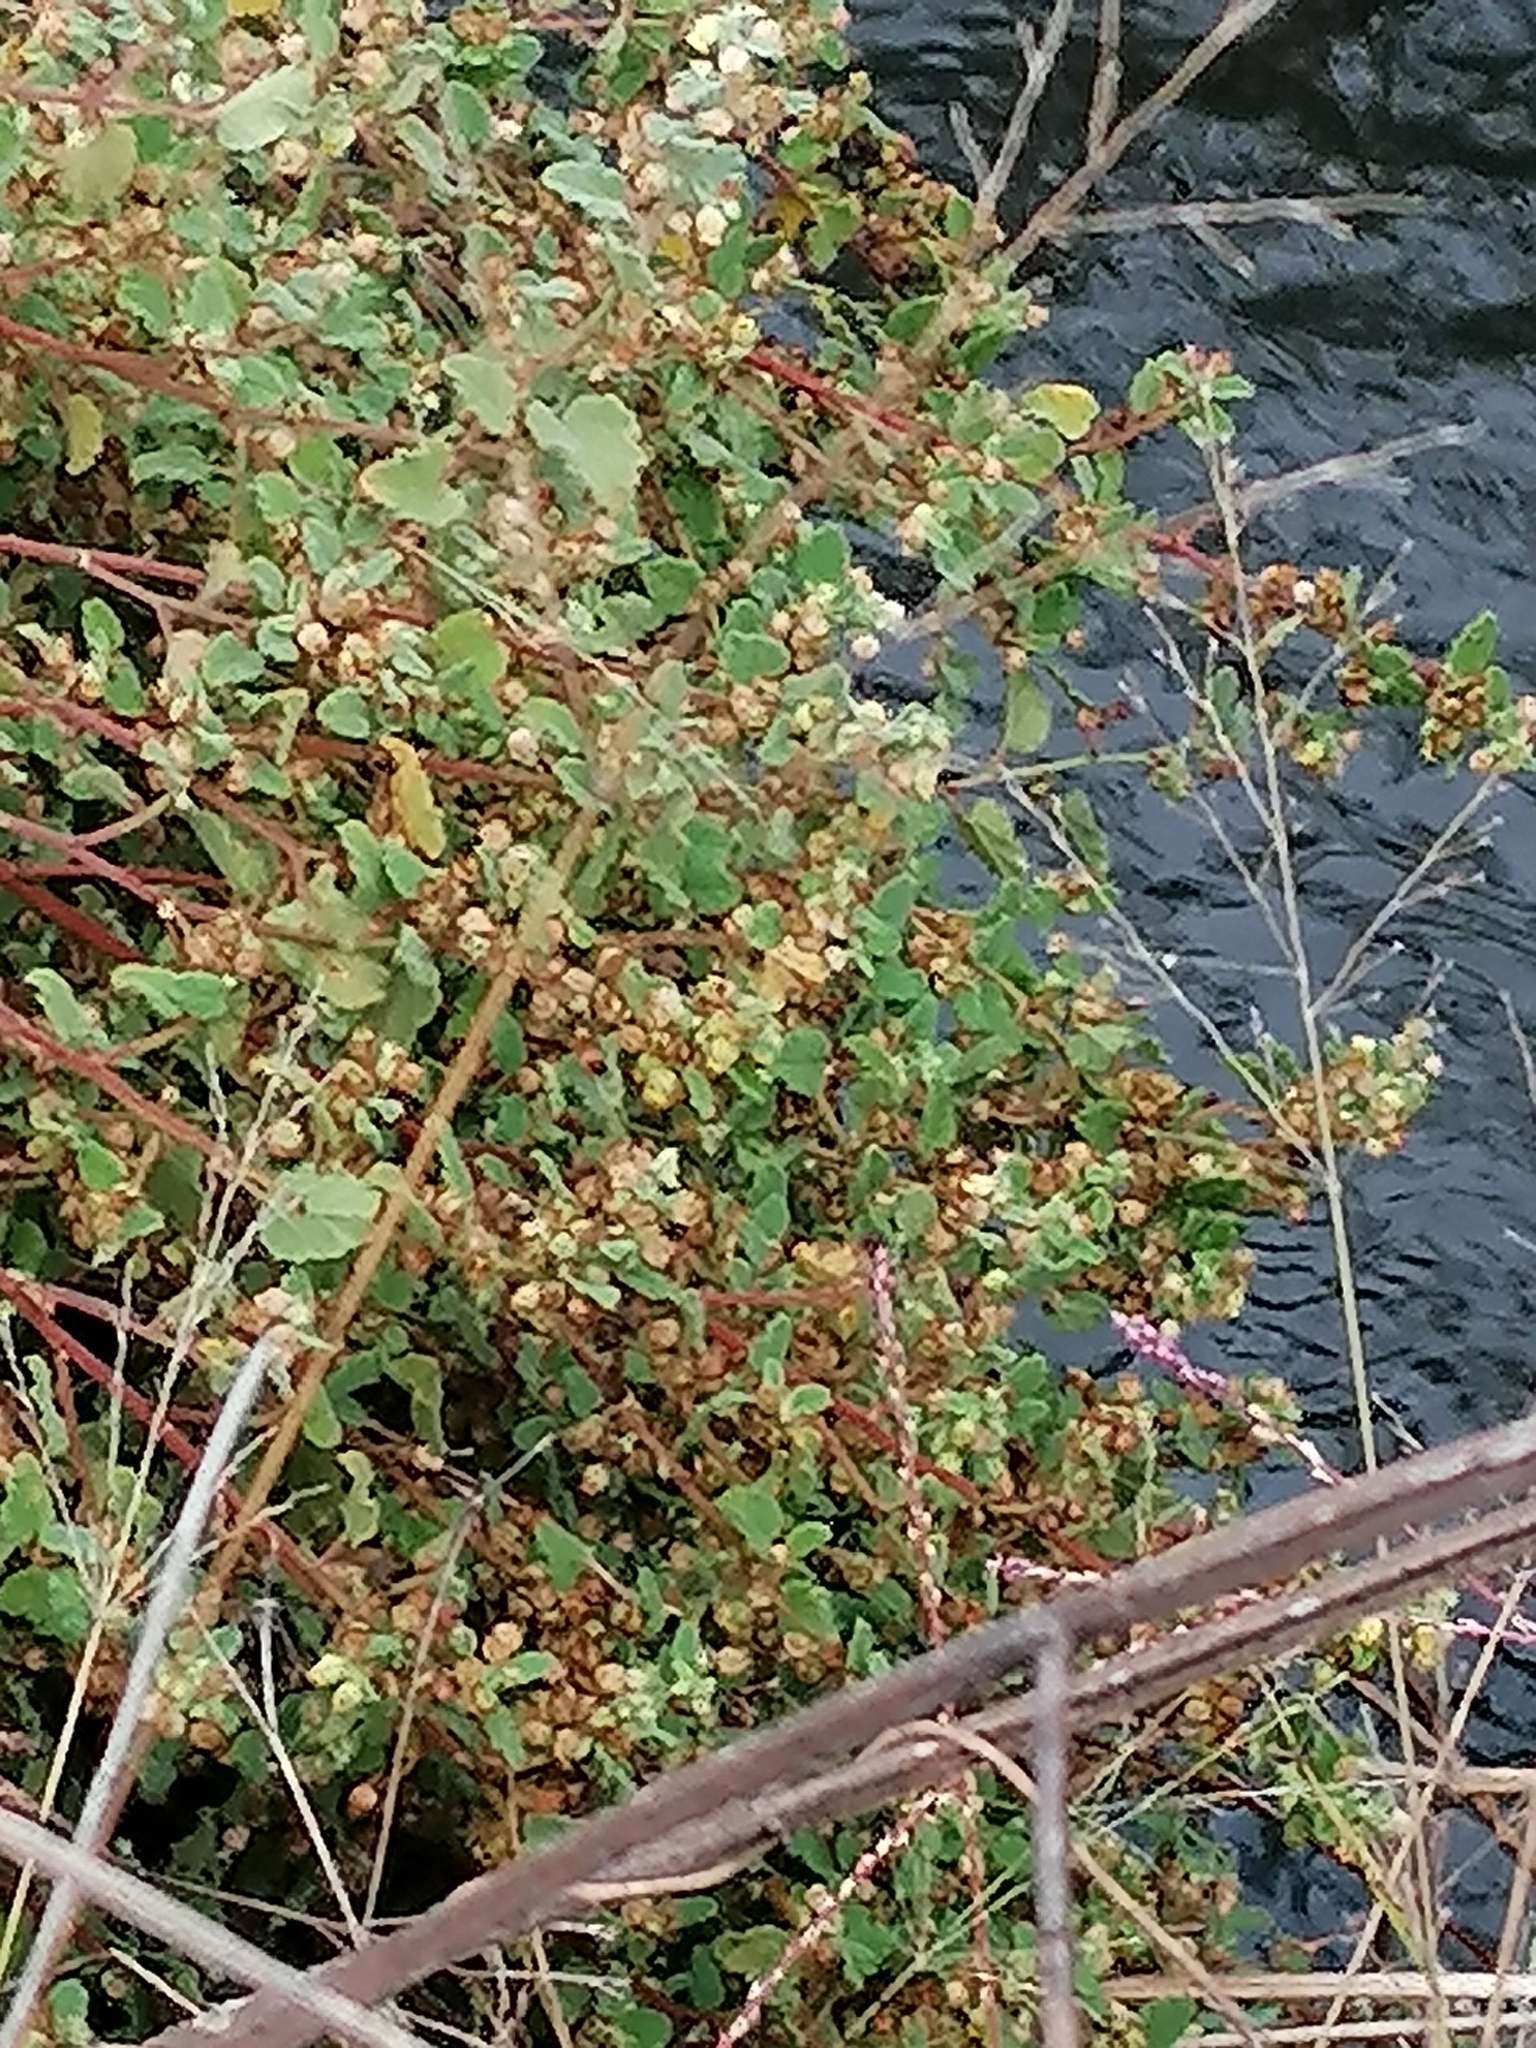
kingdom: Plantae
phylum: Tracheophyta
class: Magnoliopsida
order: Malvales
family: Malvaceae
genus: Hermannia
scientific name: Hermannia floribunda
